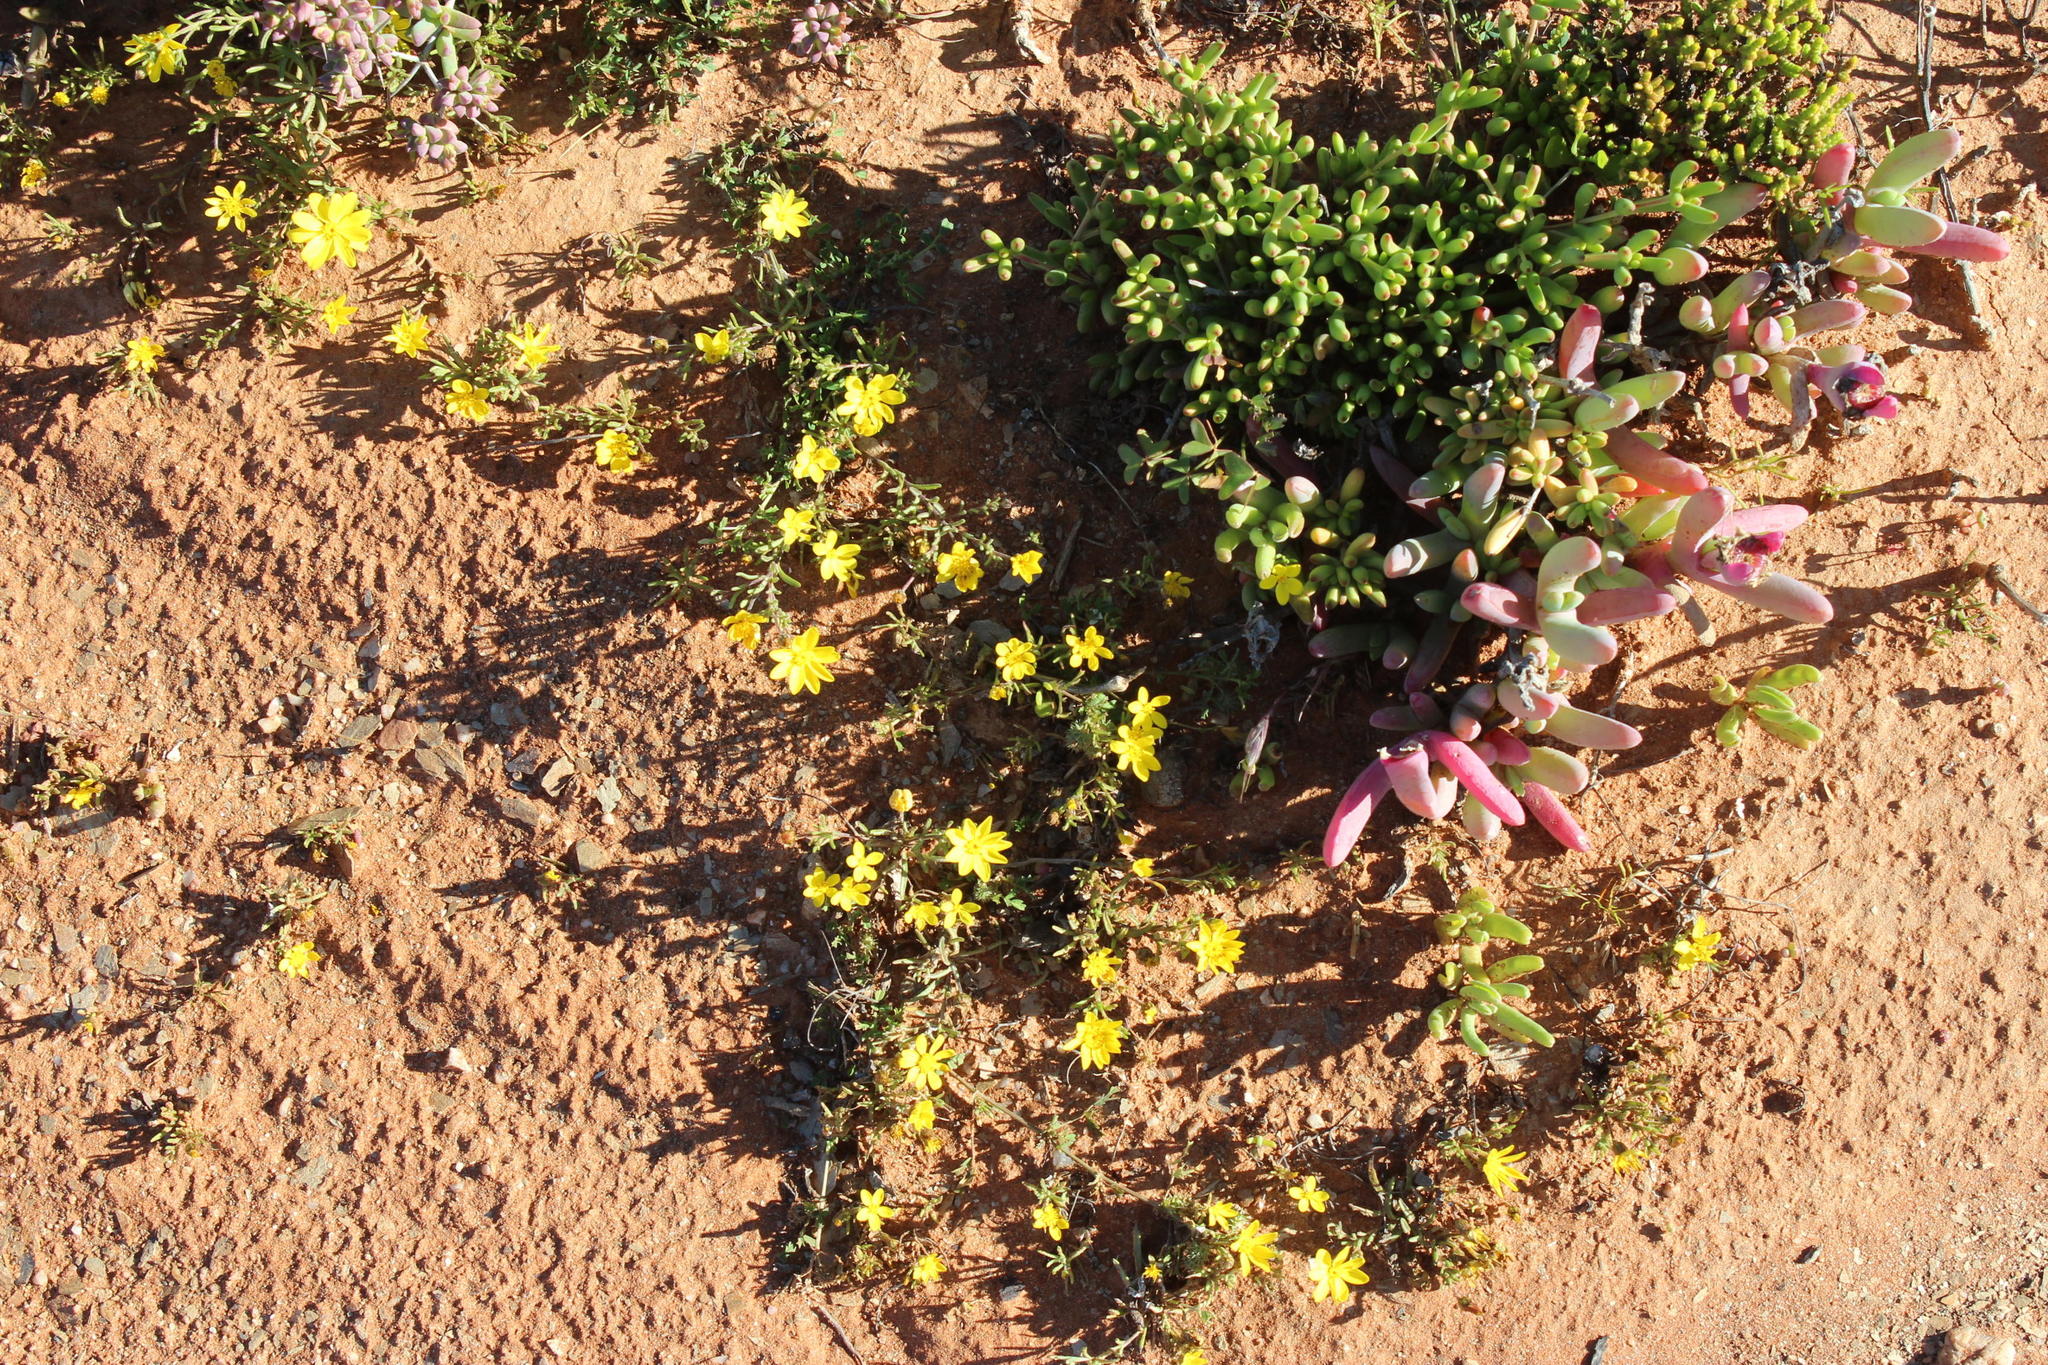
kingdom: Plantae
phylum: Tracheophyta
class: Magnoliopsida
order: Asterales
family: Asteraceae
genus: Rhynchopsidium
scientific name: Rhynchopsidium pumilum
